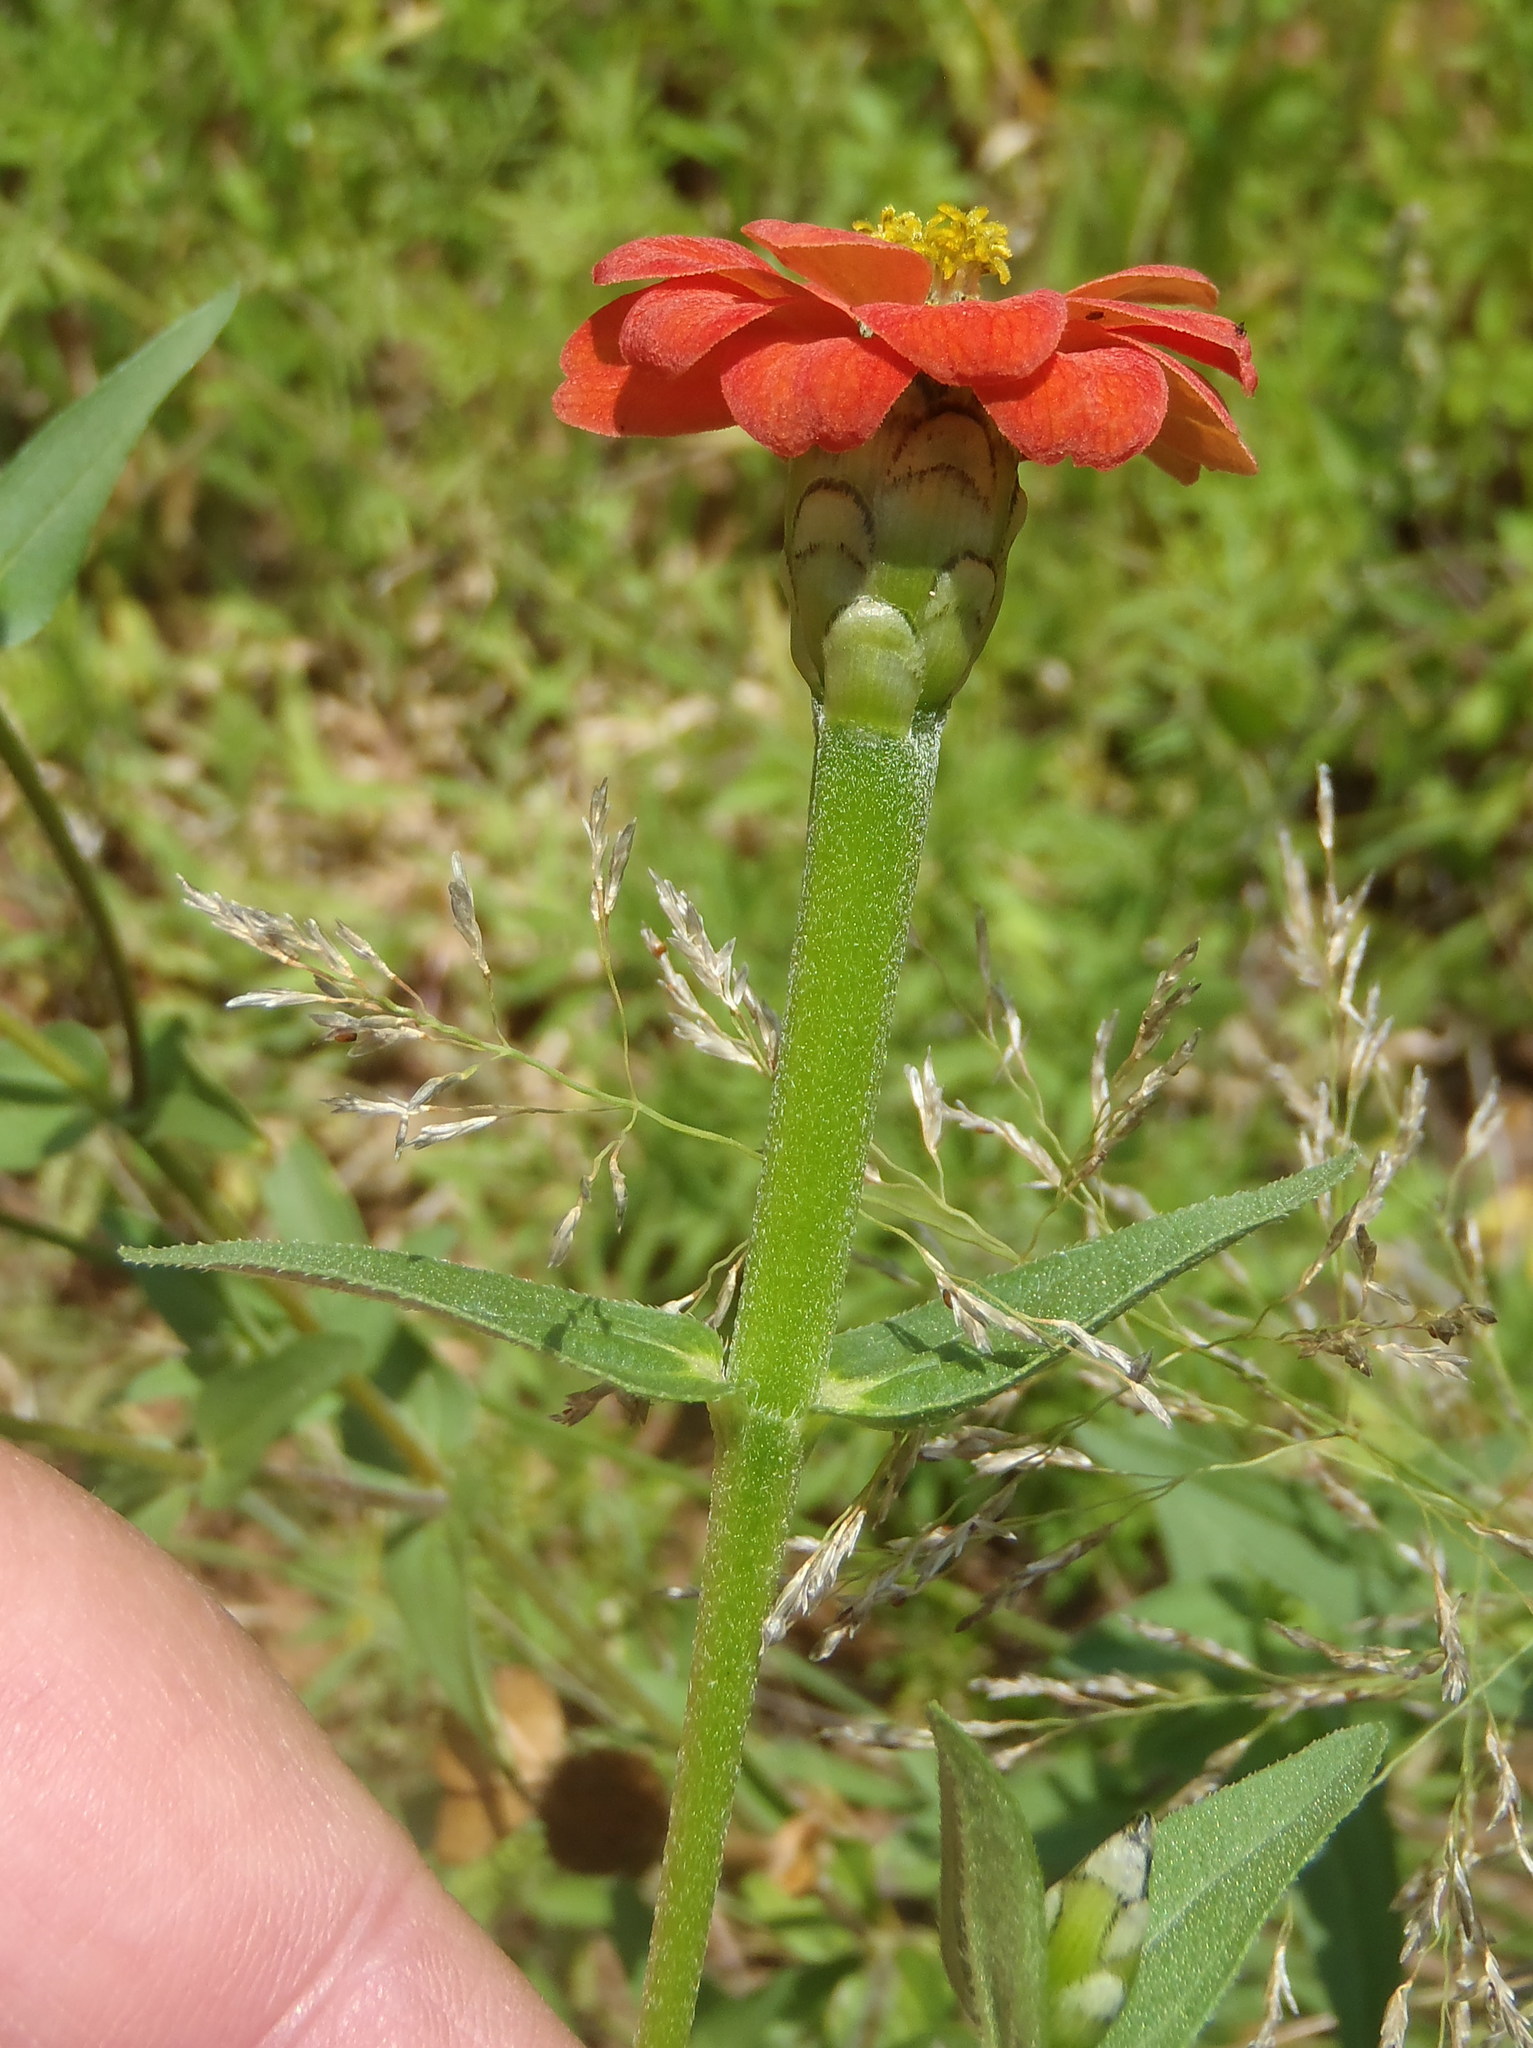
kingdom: Plantae
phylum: Tracheophyta
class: Magnoliopsida
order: Asterales
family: Asteraceae
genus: Zinnia
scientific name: Zinnia peruviana
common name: Peruvian zinnia
